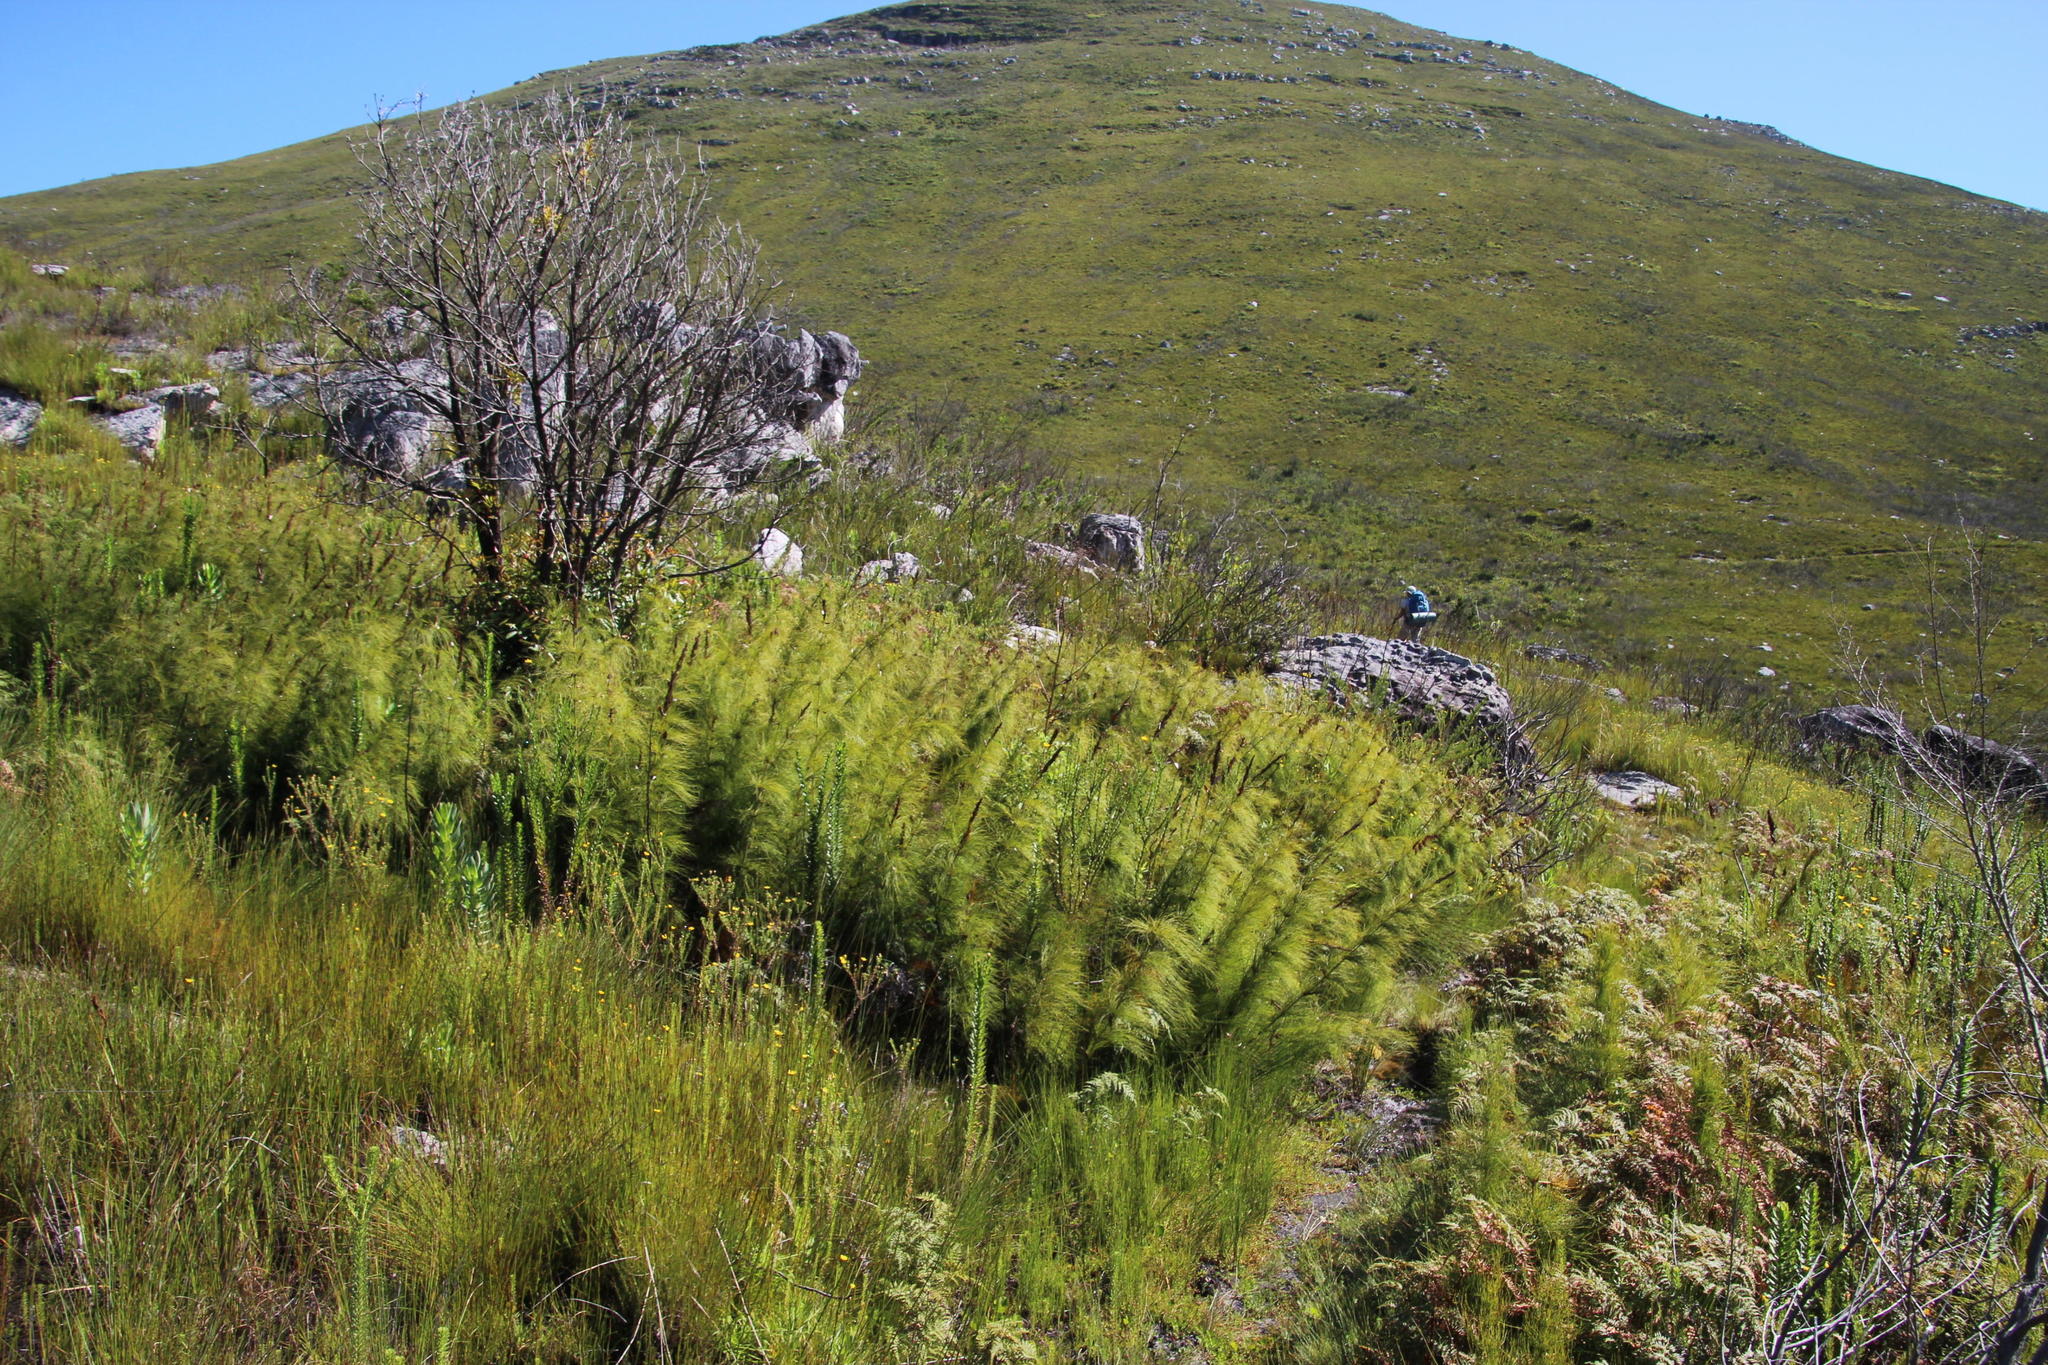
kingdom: Plantae
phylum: Tracheophyta
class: Liliopsida
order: Poales
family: Restionaceae
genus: Elegia
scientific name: Elegia capensis
